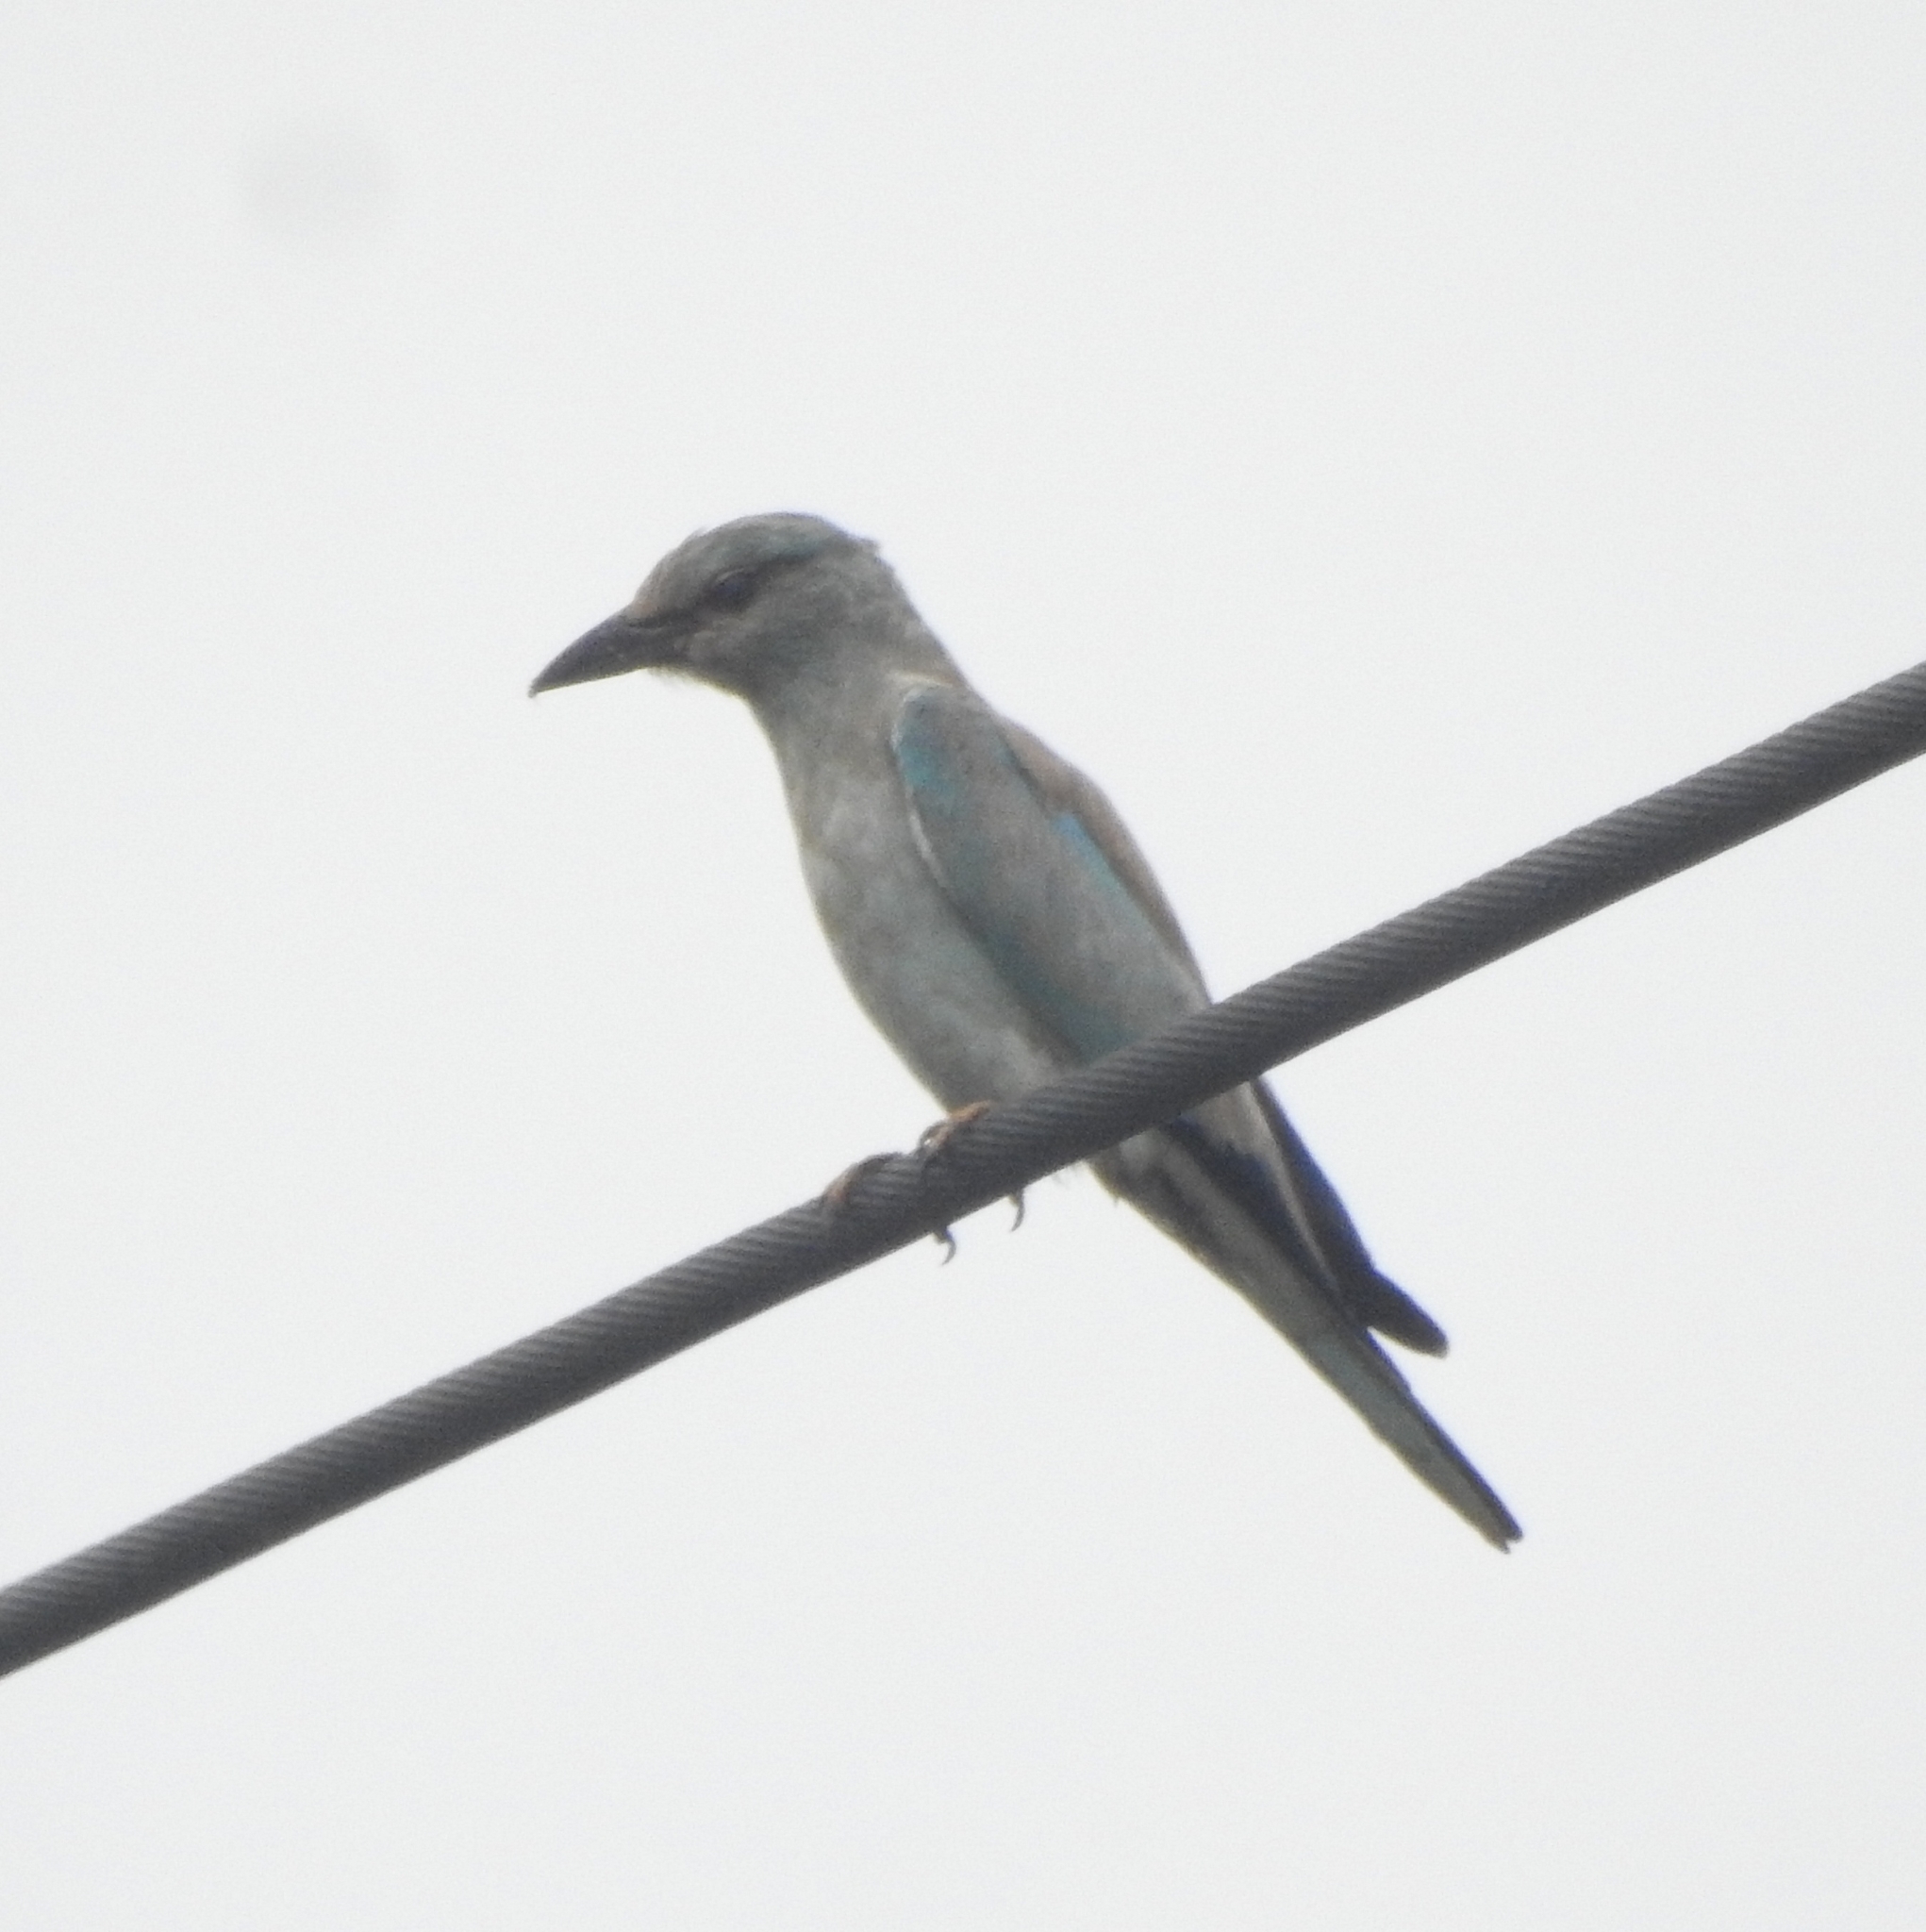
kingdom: Animalia
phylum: Chordata
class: Aves
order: Coraciiformes
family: Coraciidae
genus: Coracias
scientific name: Coracias garrulus
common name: European roller
